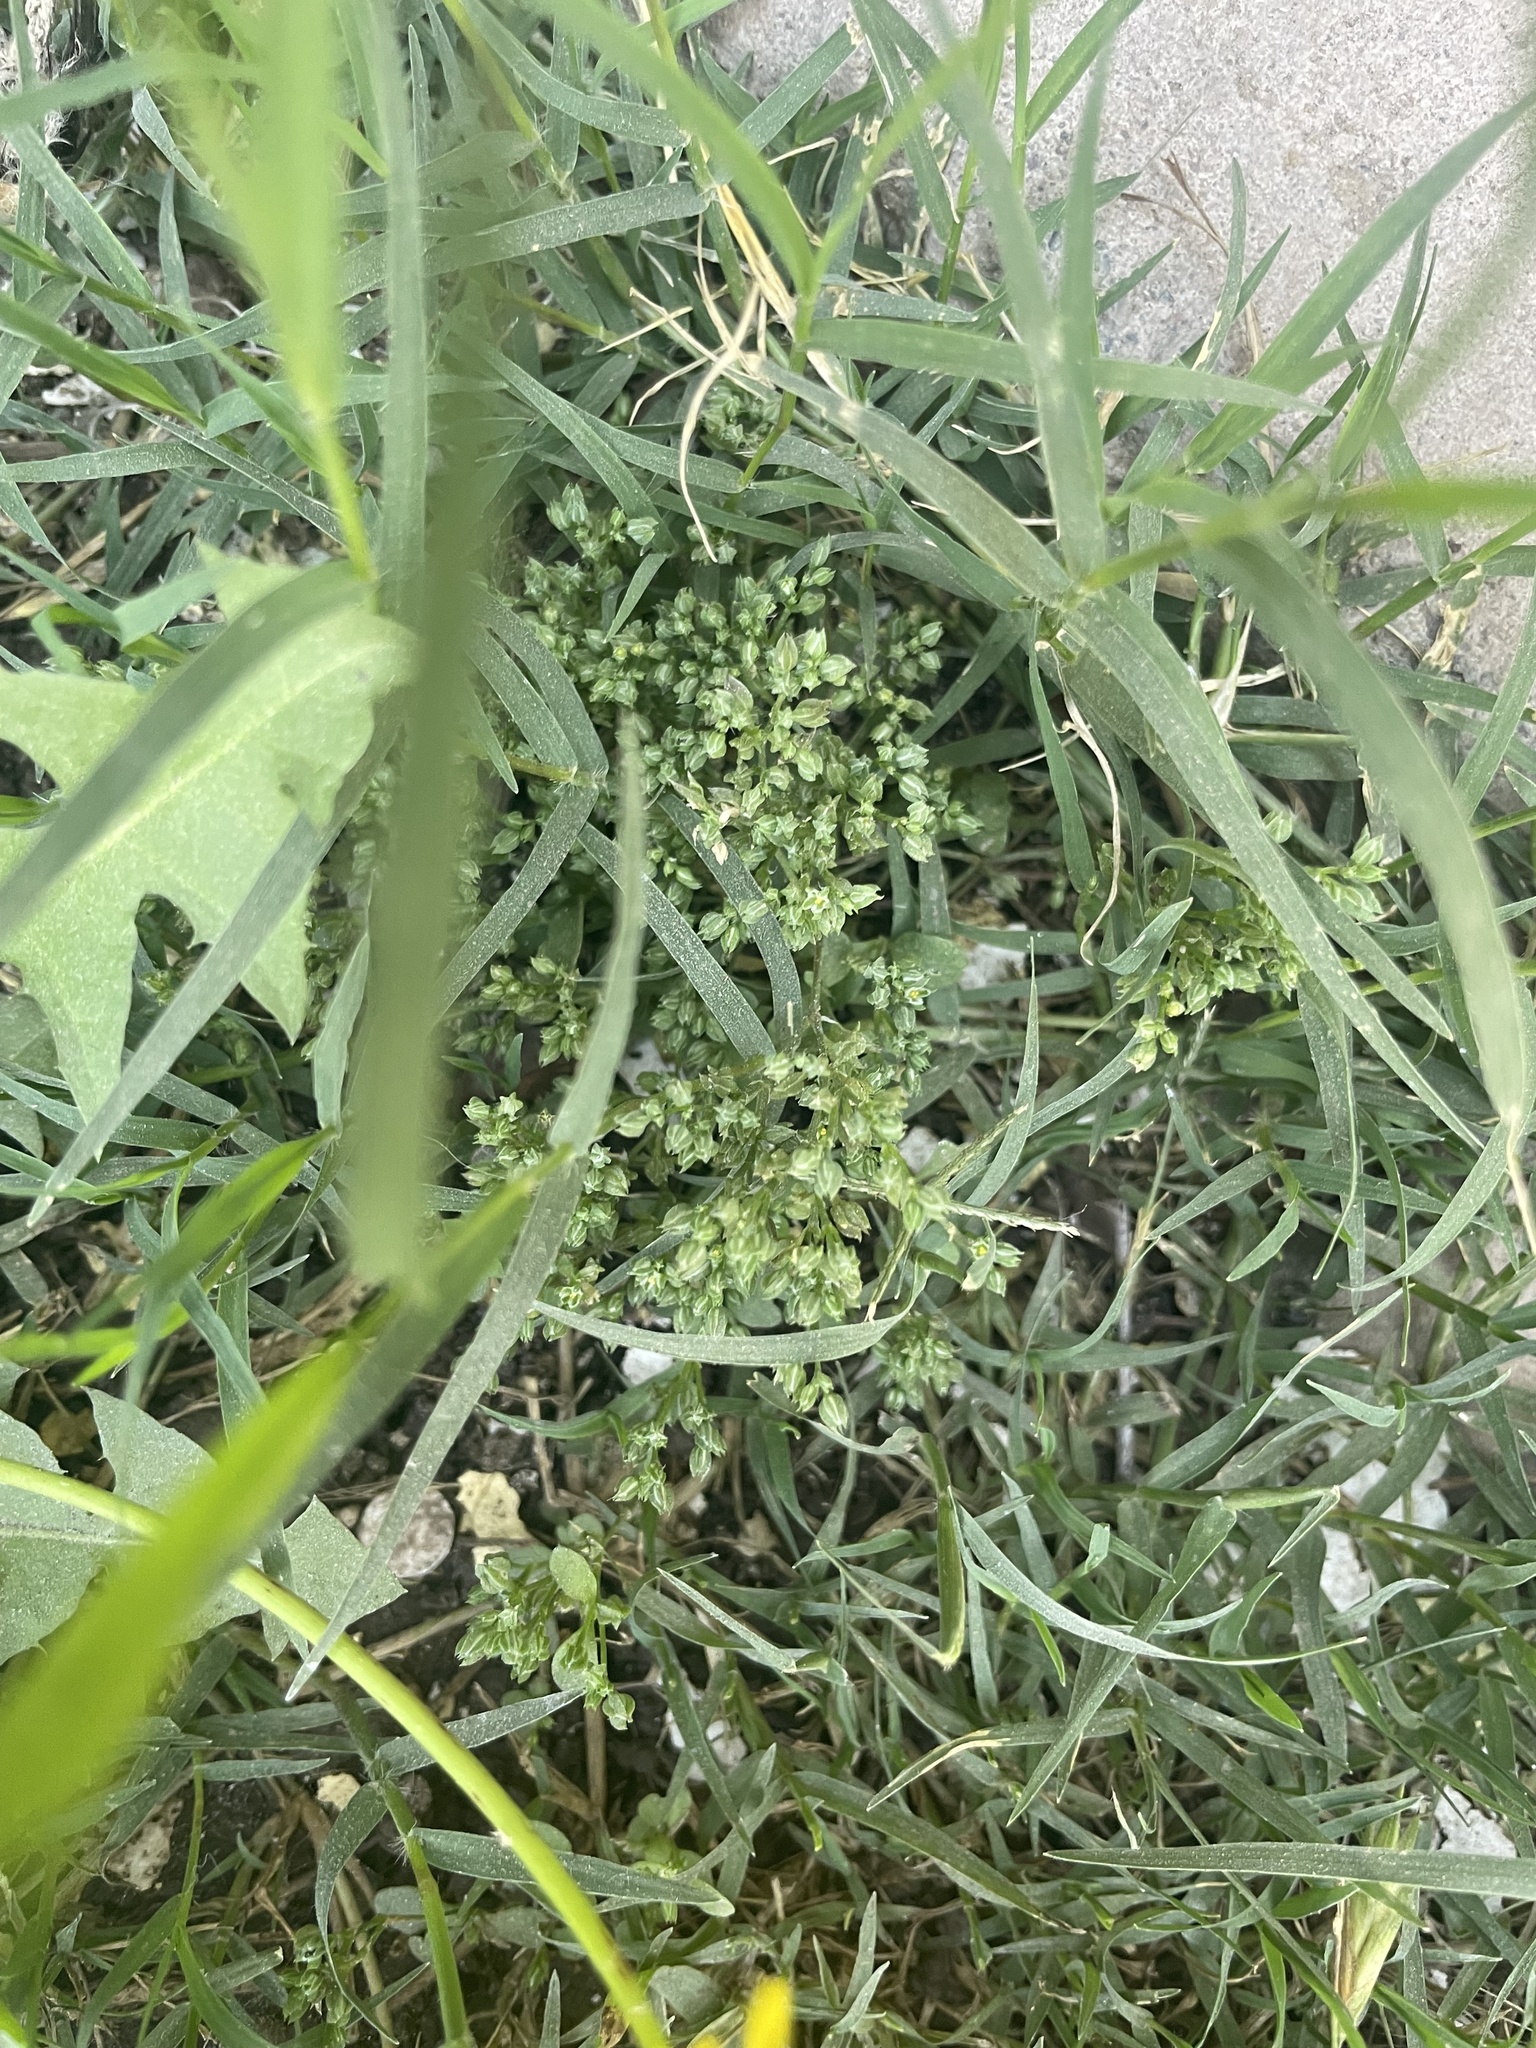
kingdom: Plantae
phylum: Tracheophyta
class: Magnoliopsida
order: Caryophyllales
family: Caryophyllaceae
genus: Polycarpon
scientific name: Polycarpon tetraphyllum
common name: Four-leaved all-seed
